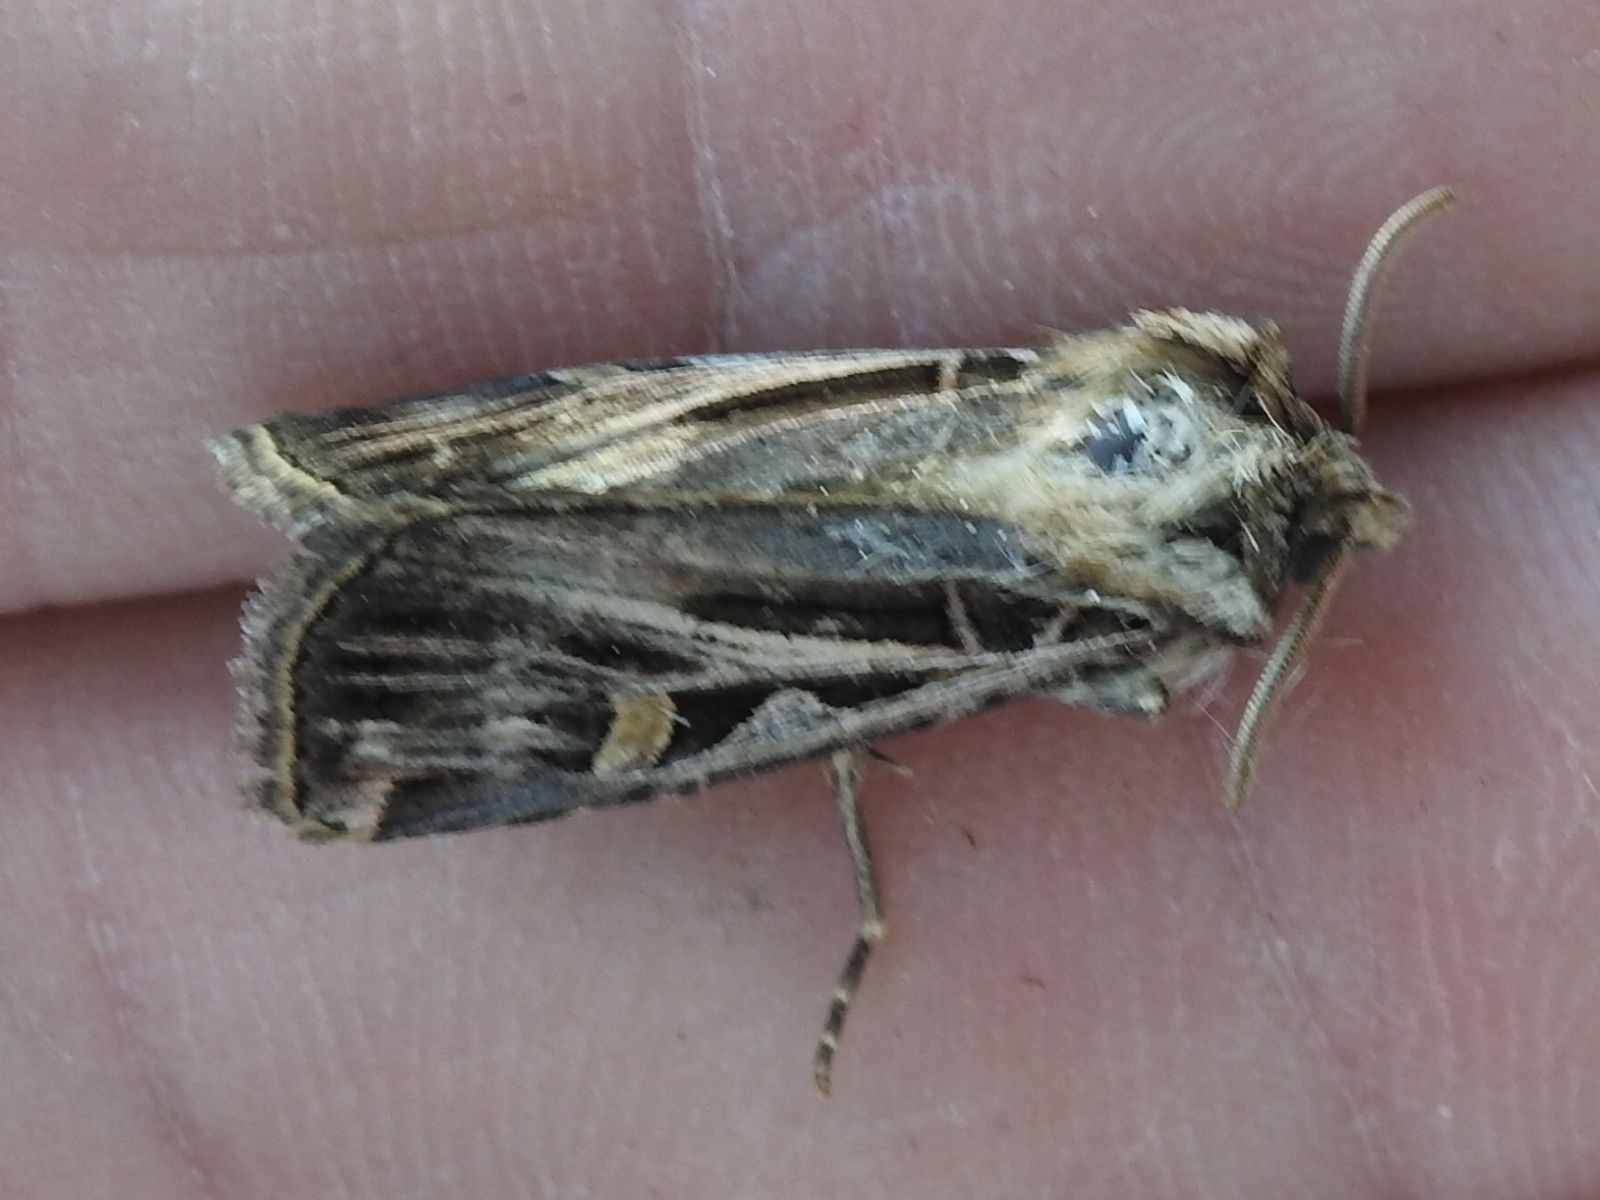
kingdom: Animalia
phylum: Arthropoda
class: Insecta
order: Lepidoptera
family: Noctuidae
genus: Feltia
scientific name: Feltia jaculifera
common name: Dingy cutworm moth
